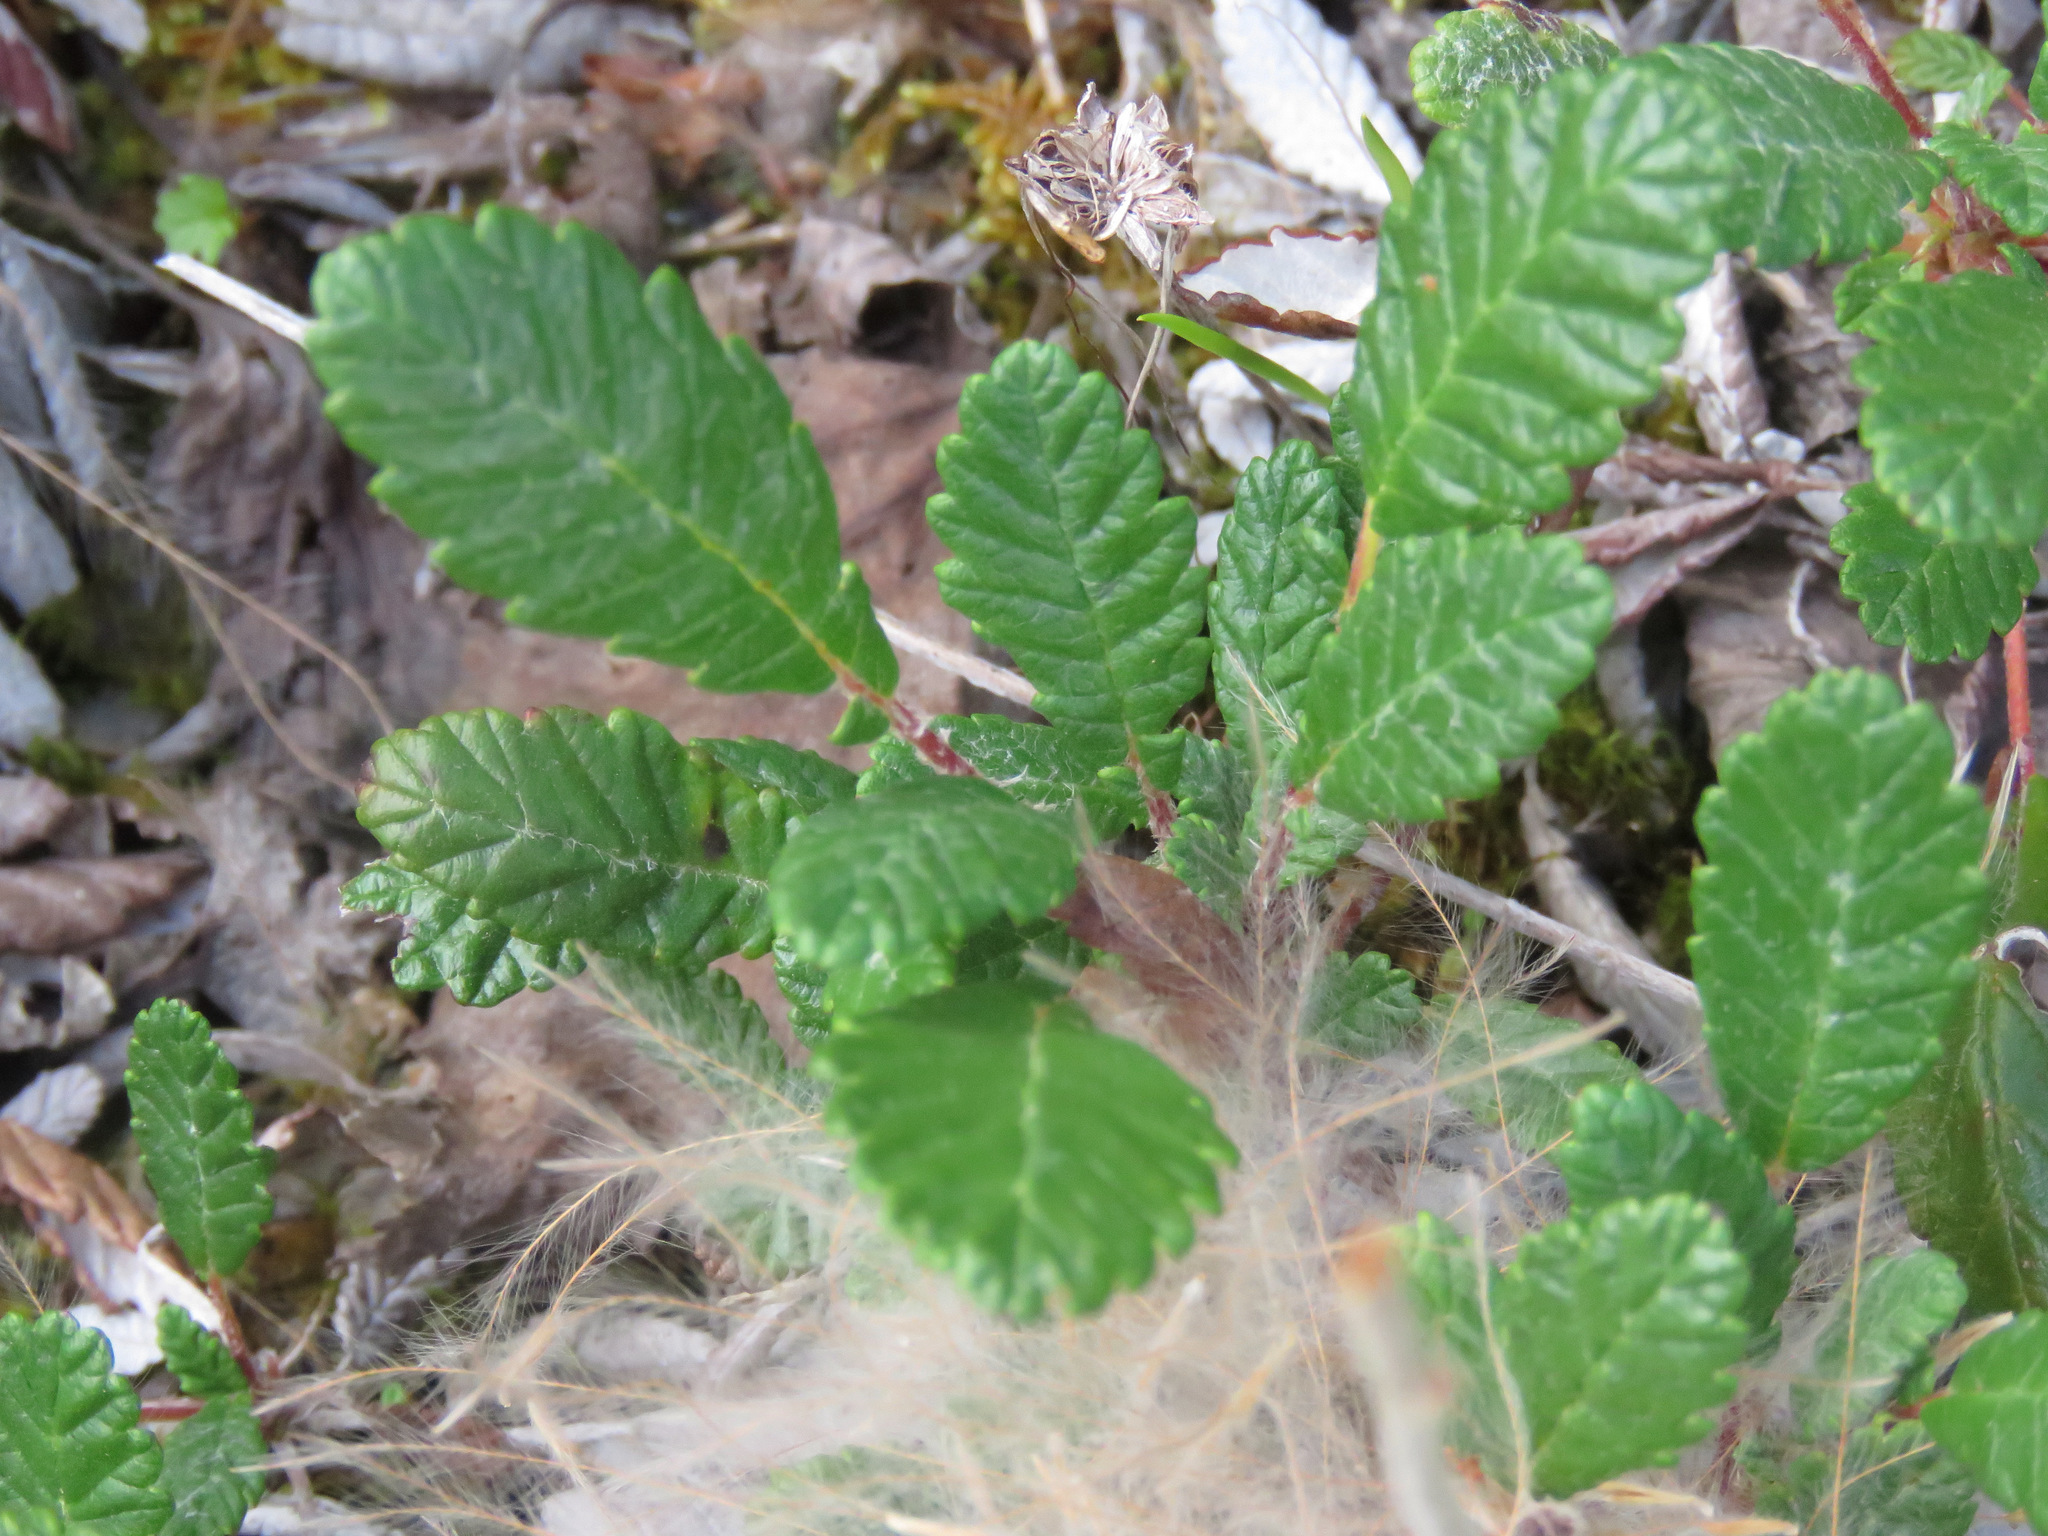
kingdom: Plantae
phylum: Tracheophyta
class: Magnoliopsida
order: Rosales
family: Rosaceae
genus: Dryas
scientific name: Dryas drummondii
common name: Drummond's dryad
